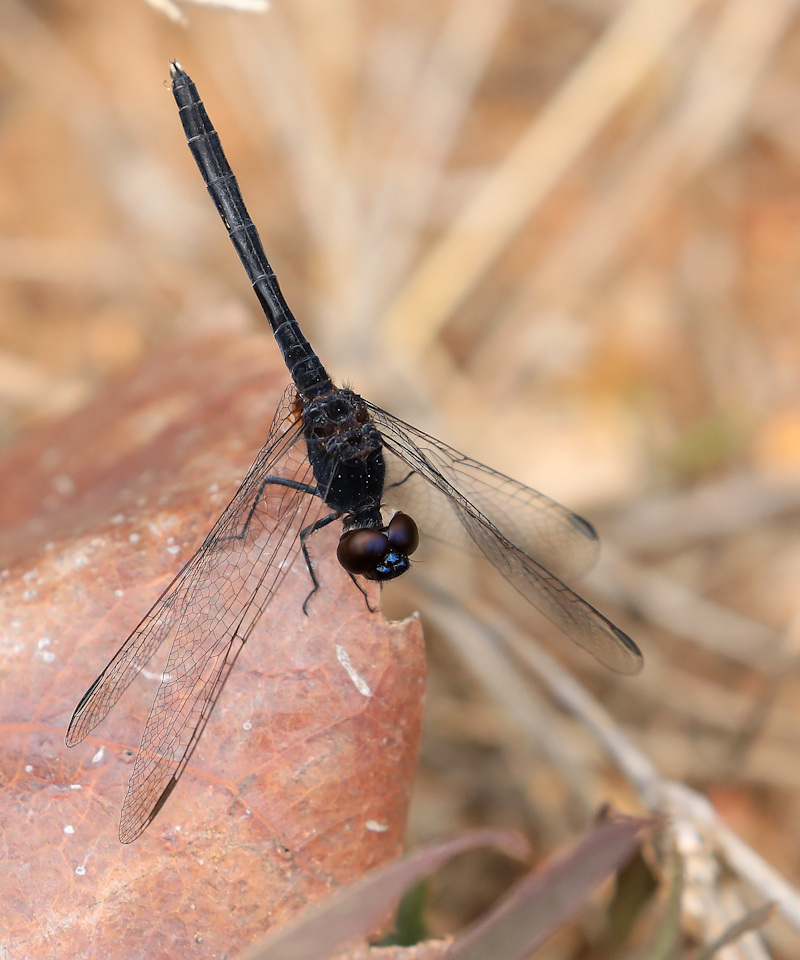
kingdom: Animalia
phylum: Arthropoda
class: Insecta
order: Odonata
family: Libellulidae
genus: Diplacodes
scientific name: Diplacodes lefebvrii
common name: Black percher
